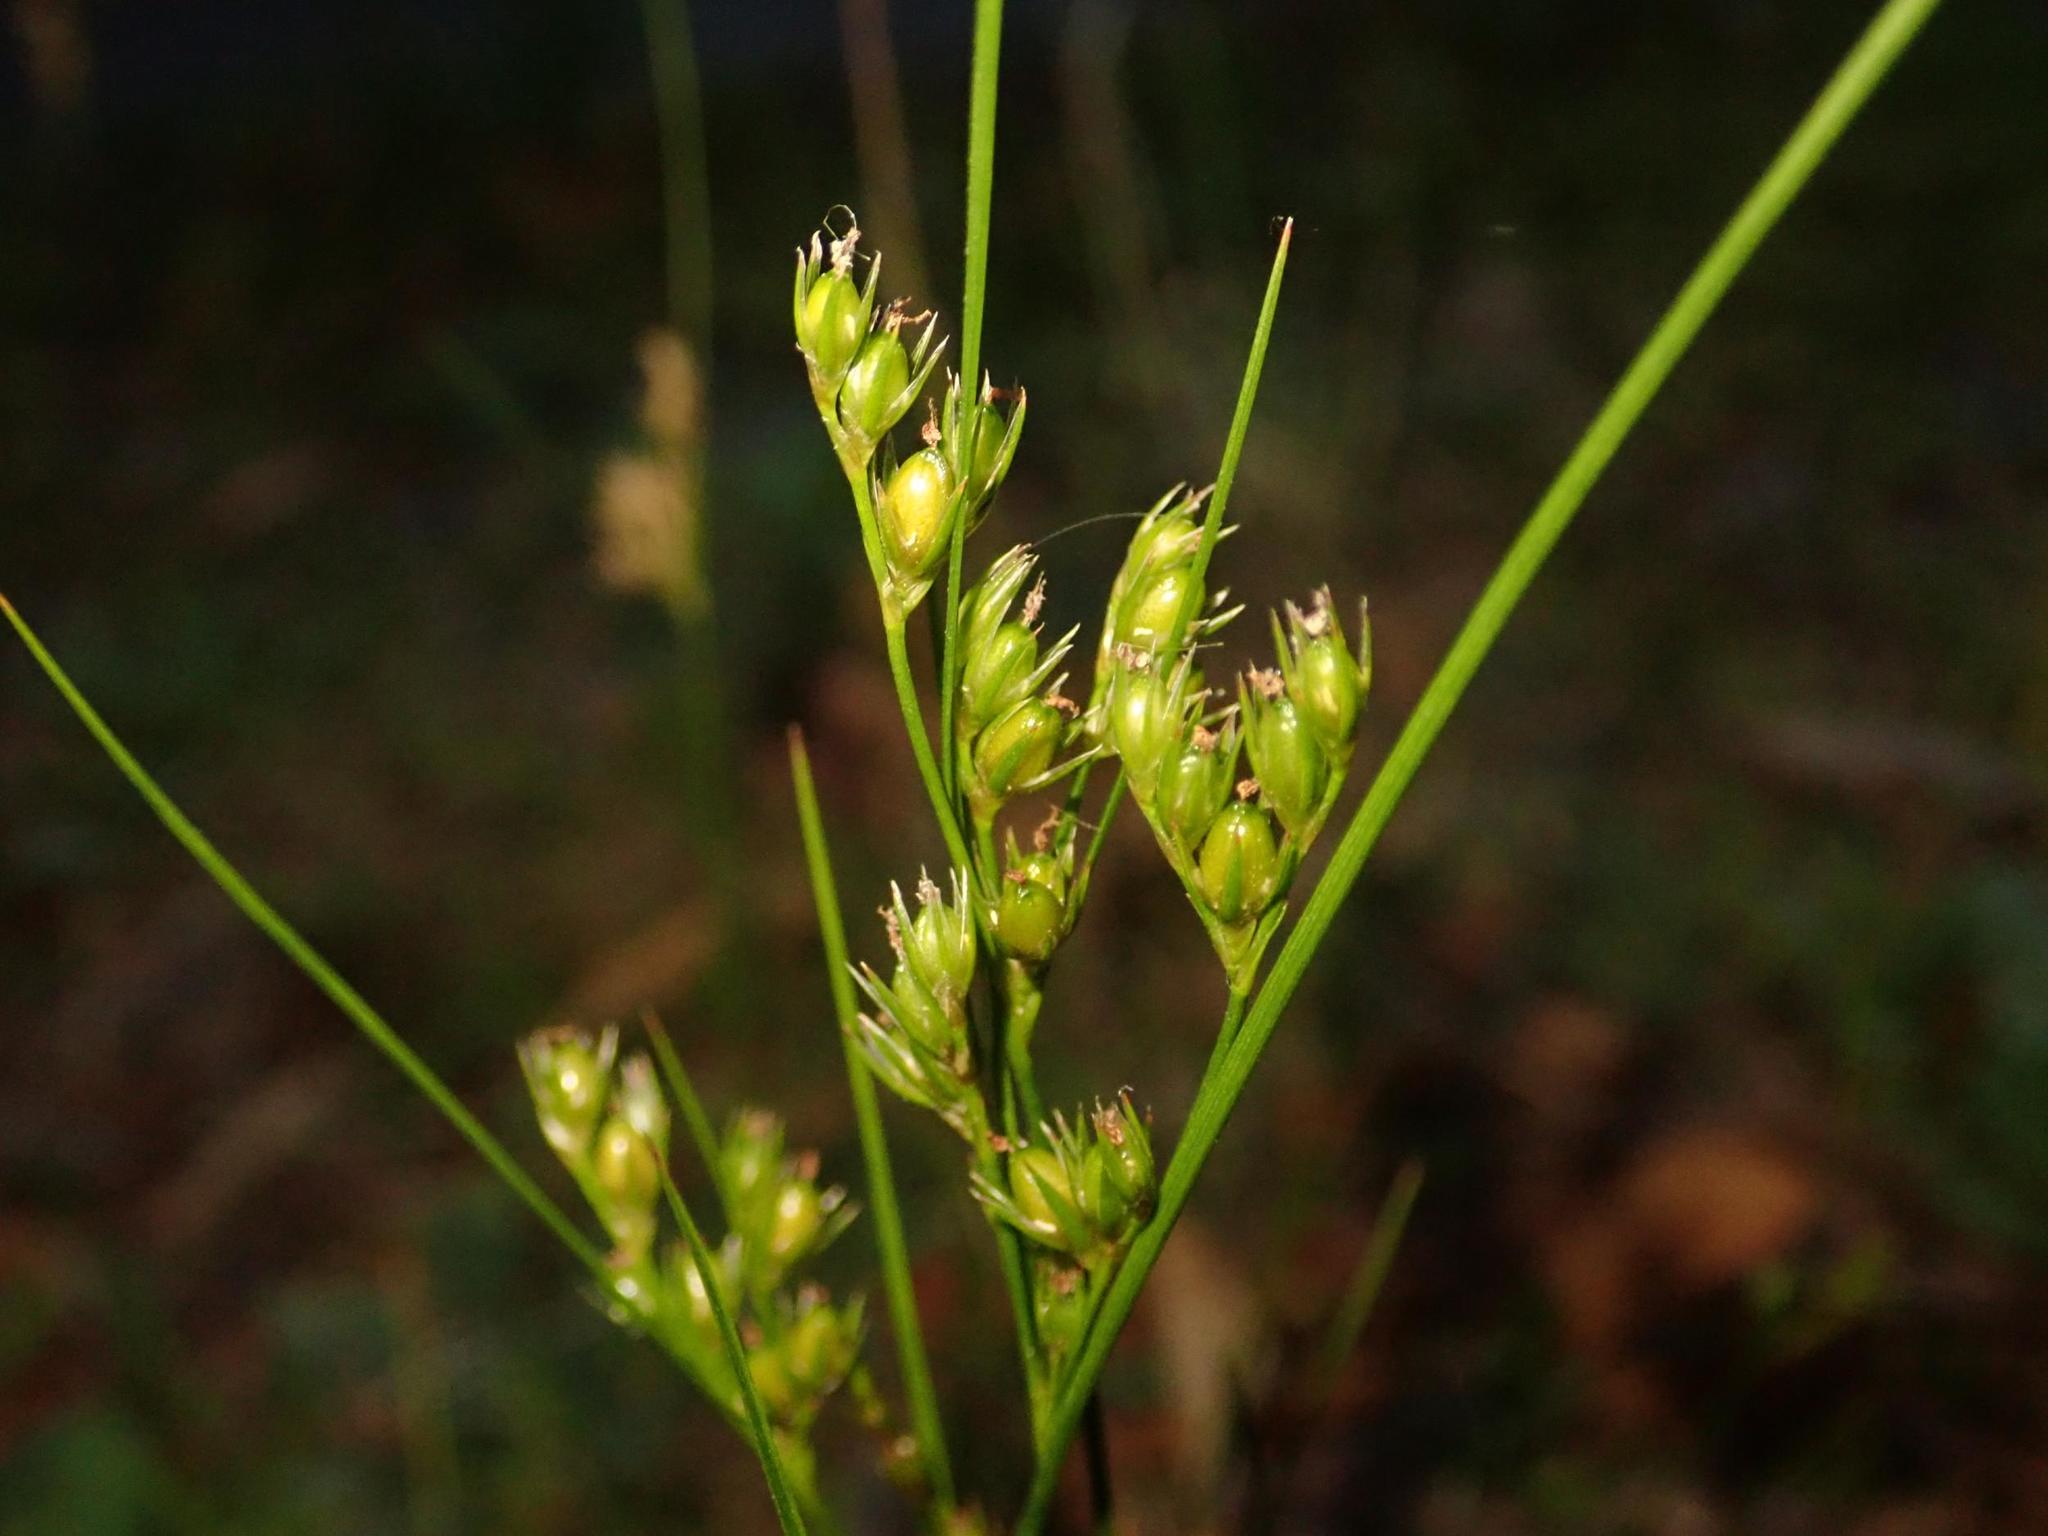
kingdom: Plantae
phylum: Tracheophyta
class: Liliopsida
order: Poales
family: Juncaceae
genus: Juncus
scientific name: Juncus tenuis
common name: Slender rush
